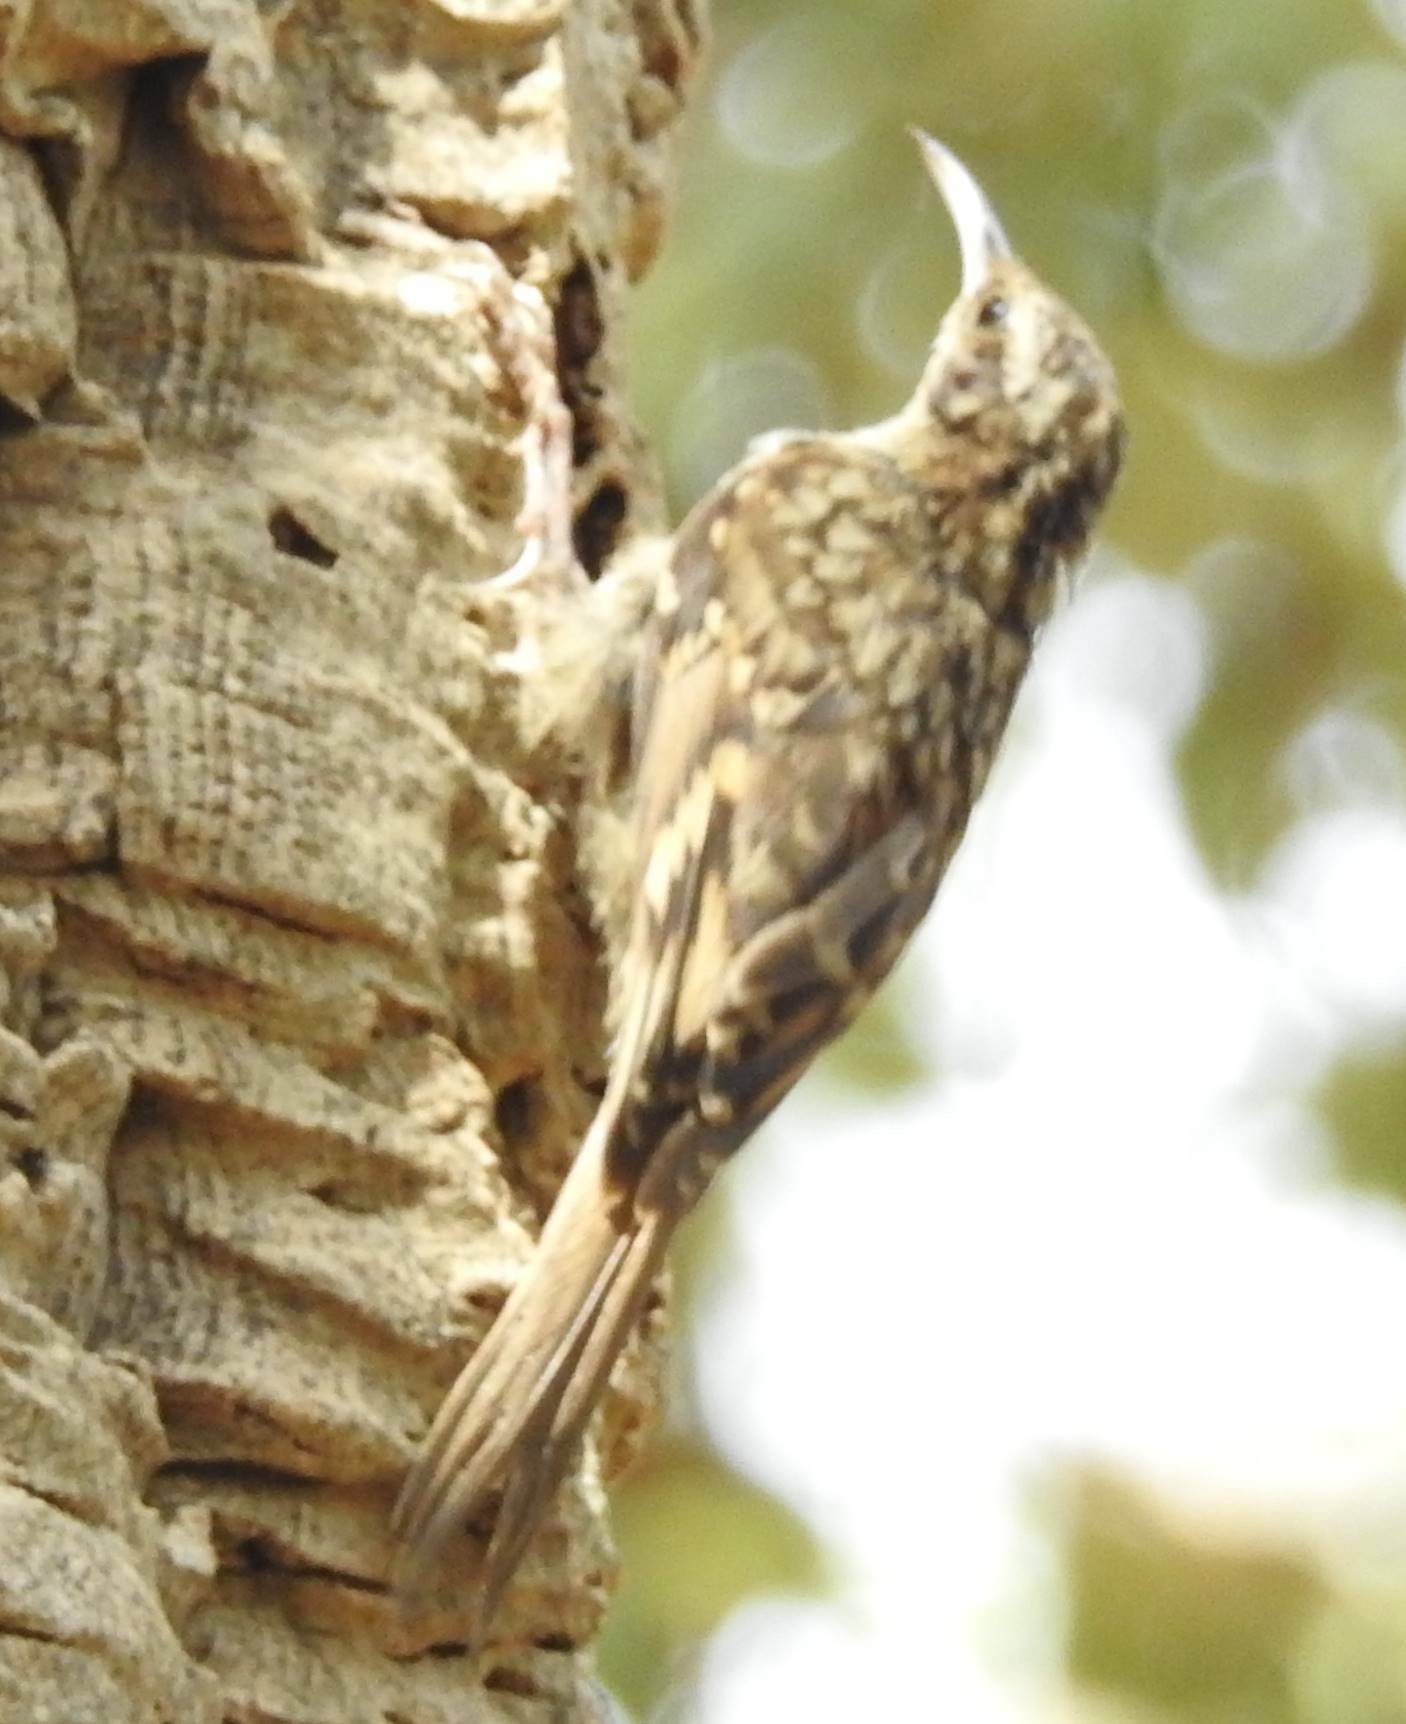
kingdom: Animalia
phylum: Chordata
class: Aves
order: Passeriformes
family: Certhiidae
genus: Certhia
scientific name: Certhia brachydactyla
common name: Short-toed treecreeper
